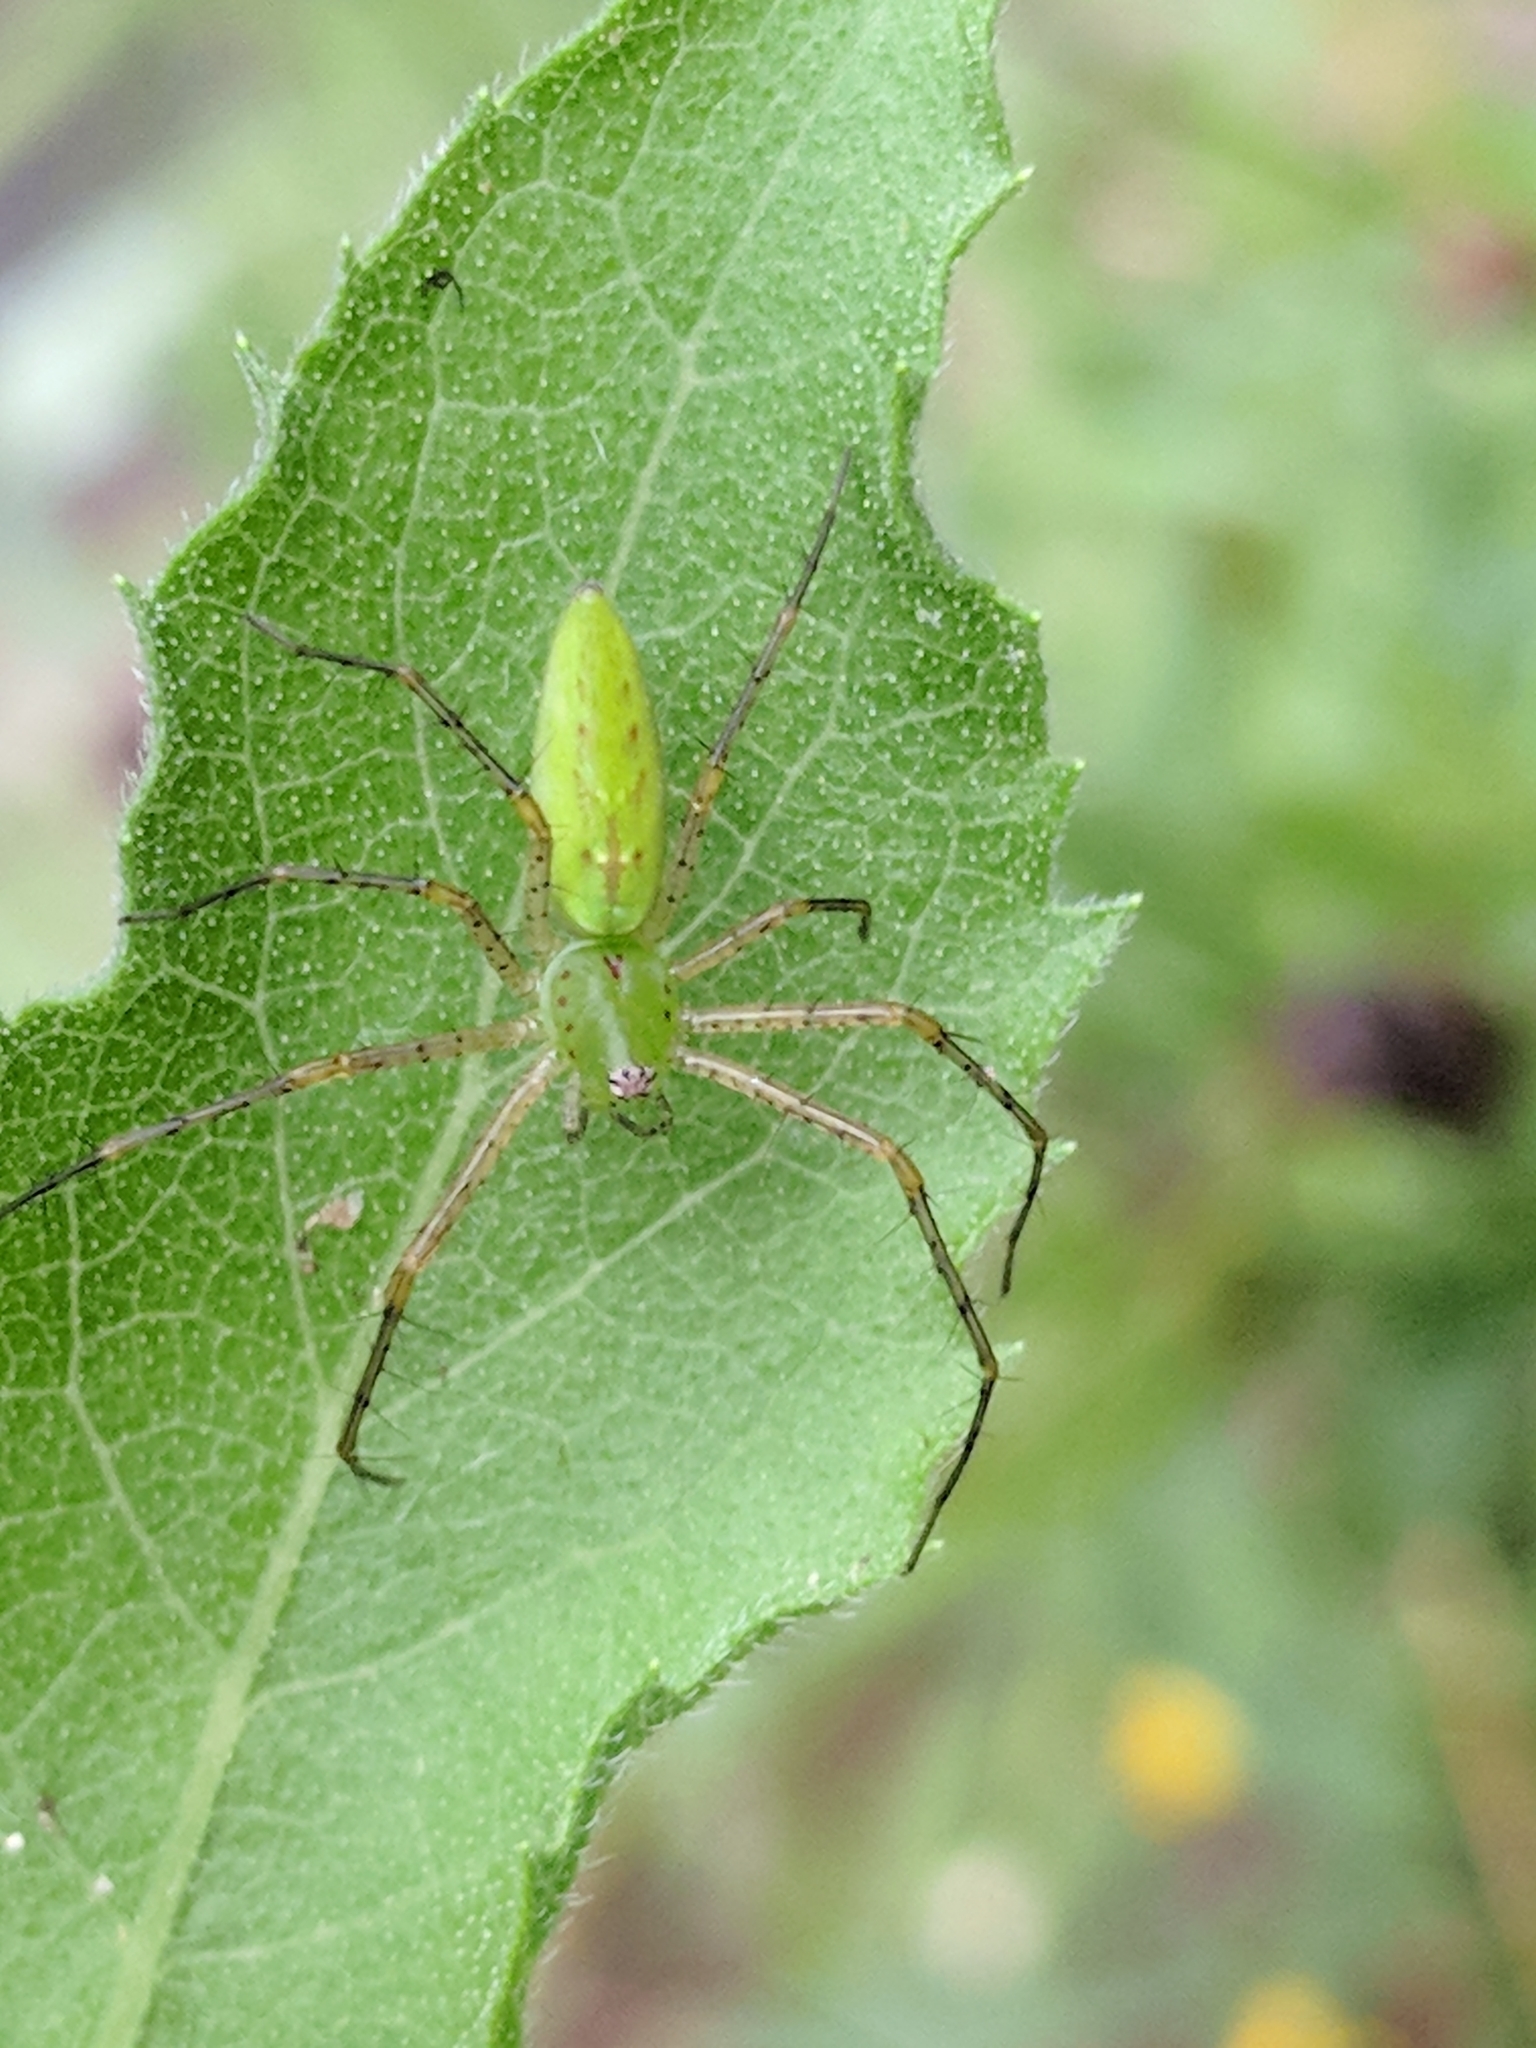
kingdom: Animalia
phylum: Arthropoda
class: Arachnida
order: Araneae
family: Oxyopidae
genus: Peucetia
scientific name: Peucetia viridans
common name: Lynx spiders
